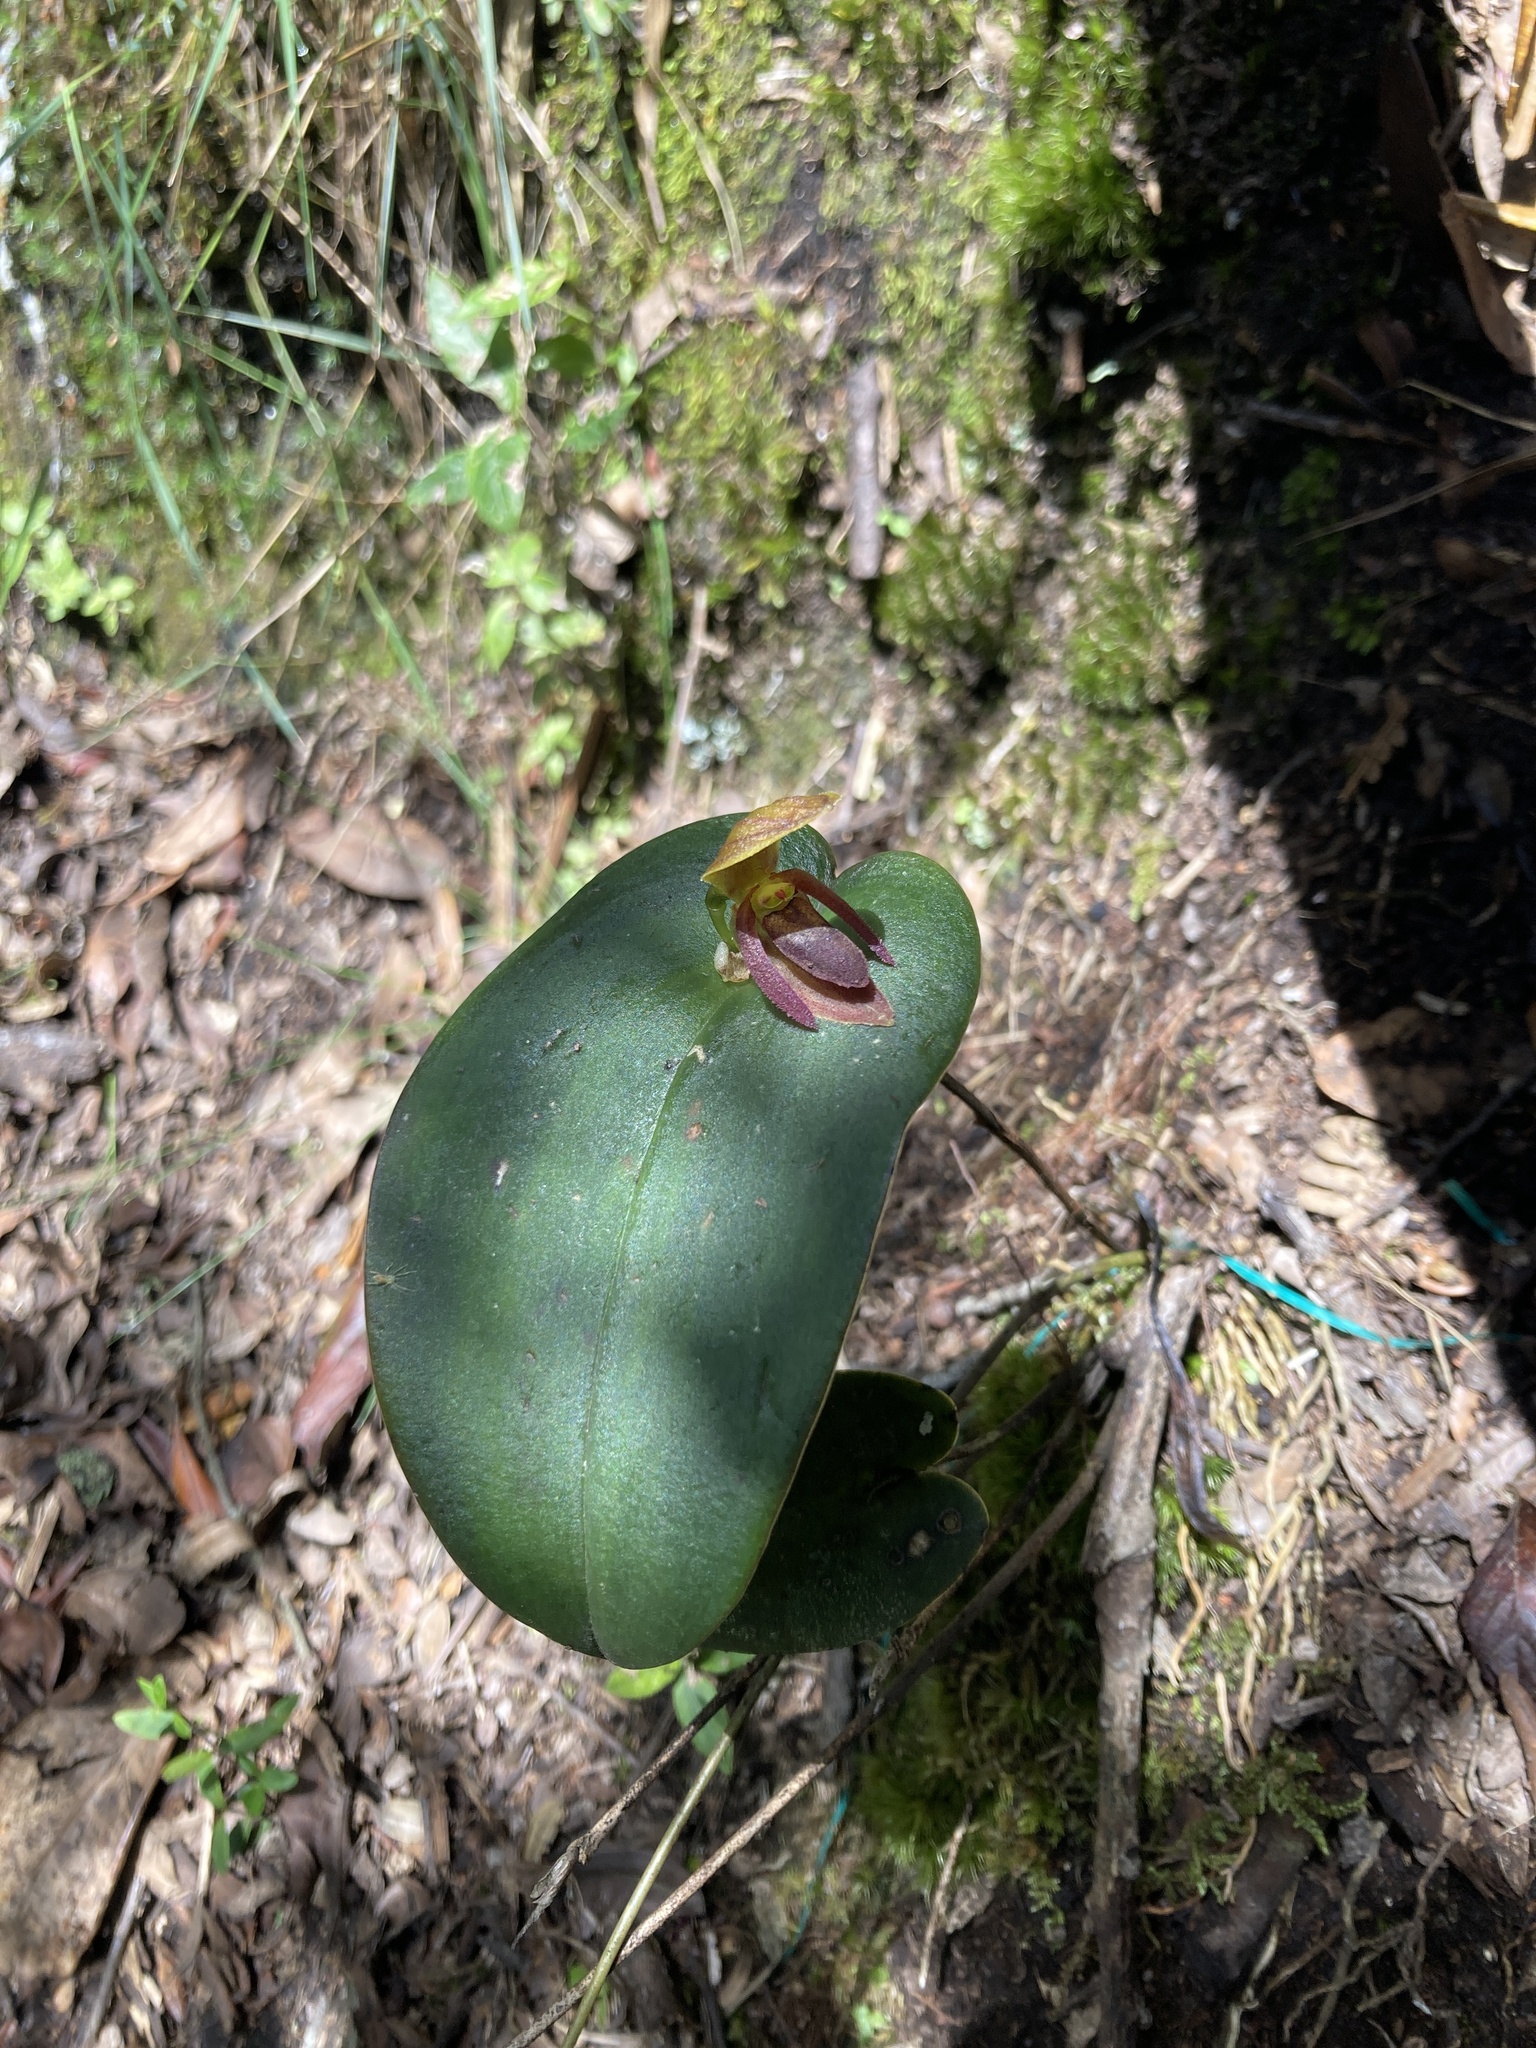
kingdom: Plantae
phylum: Tracheophyta
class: Liliopsida
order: Asparagales
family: Orchidaceae
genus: Pleurothallis
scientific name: Pleurothallis adonis
